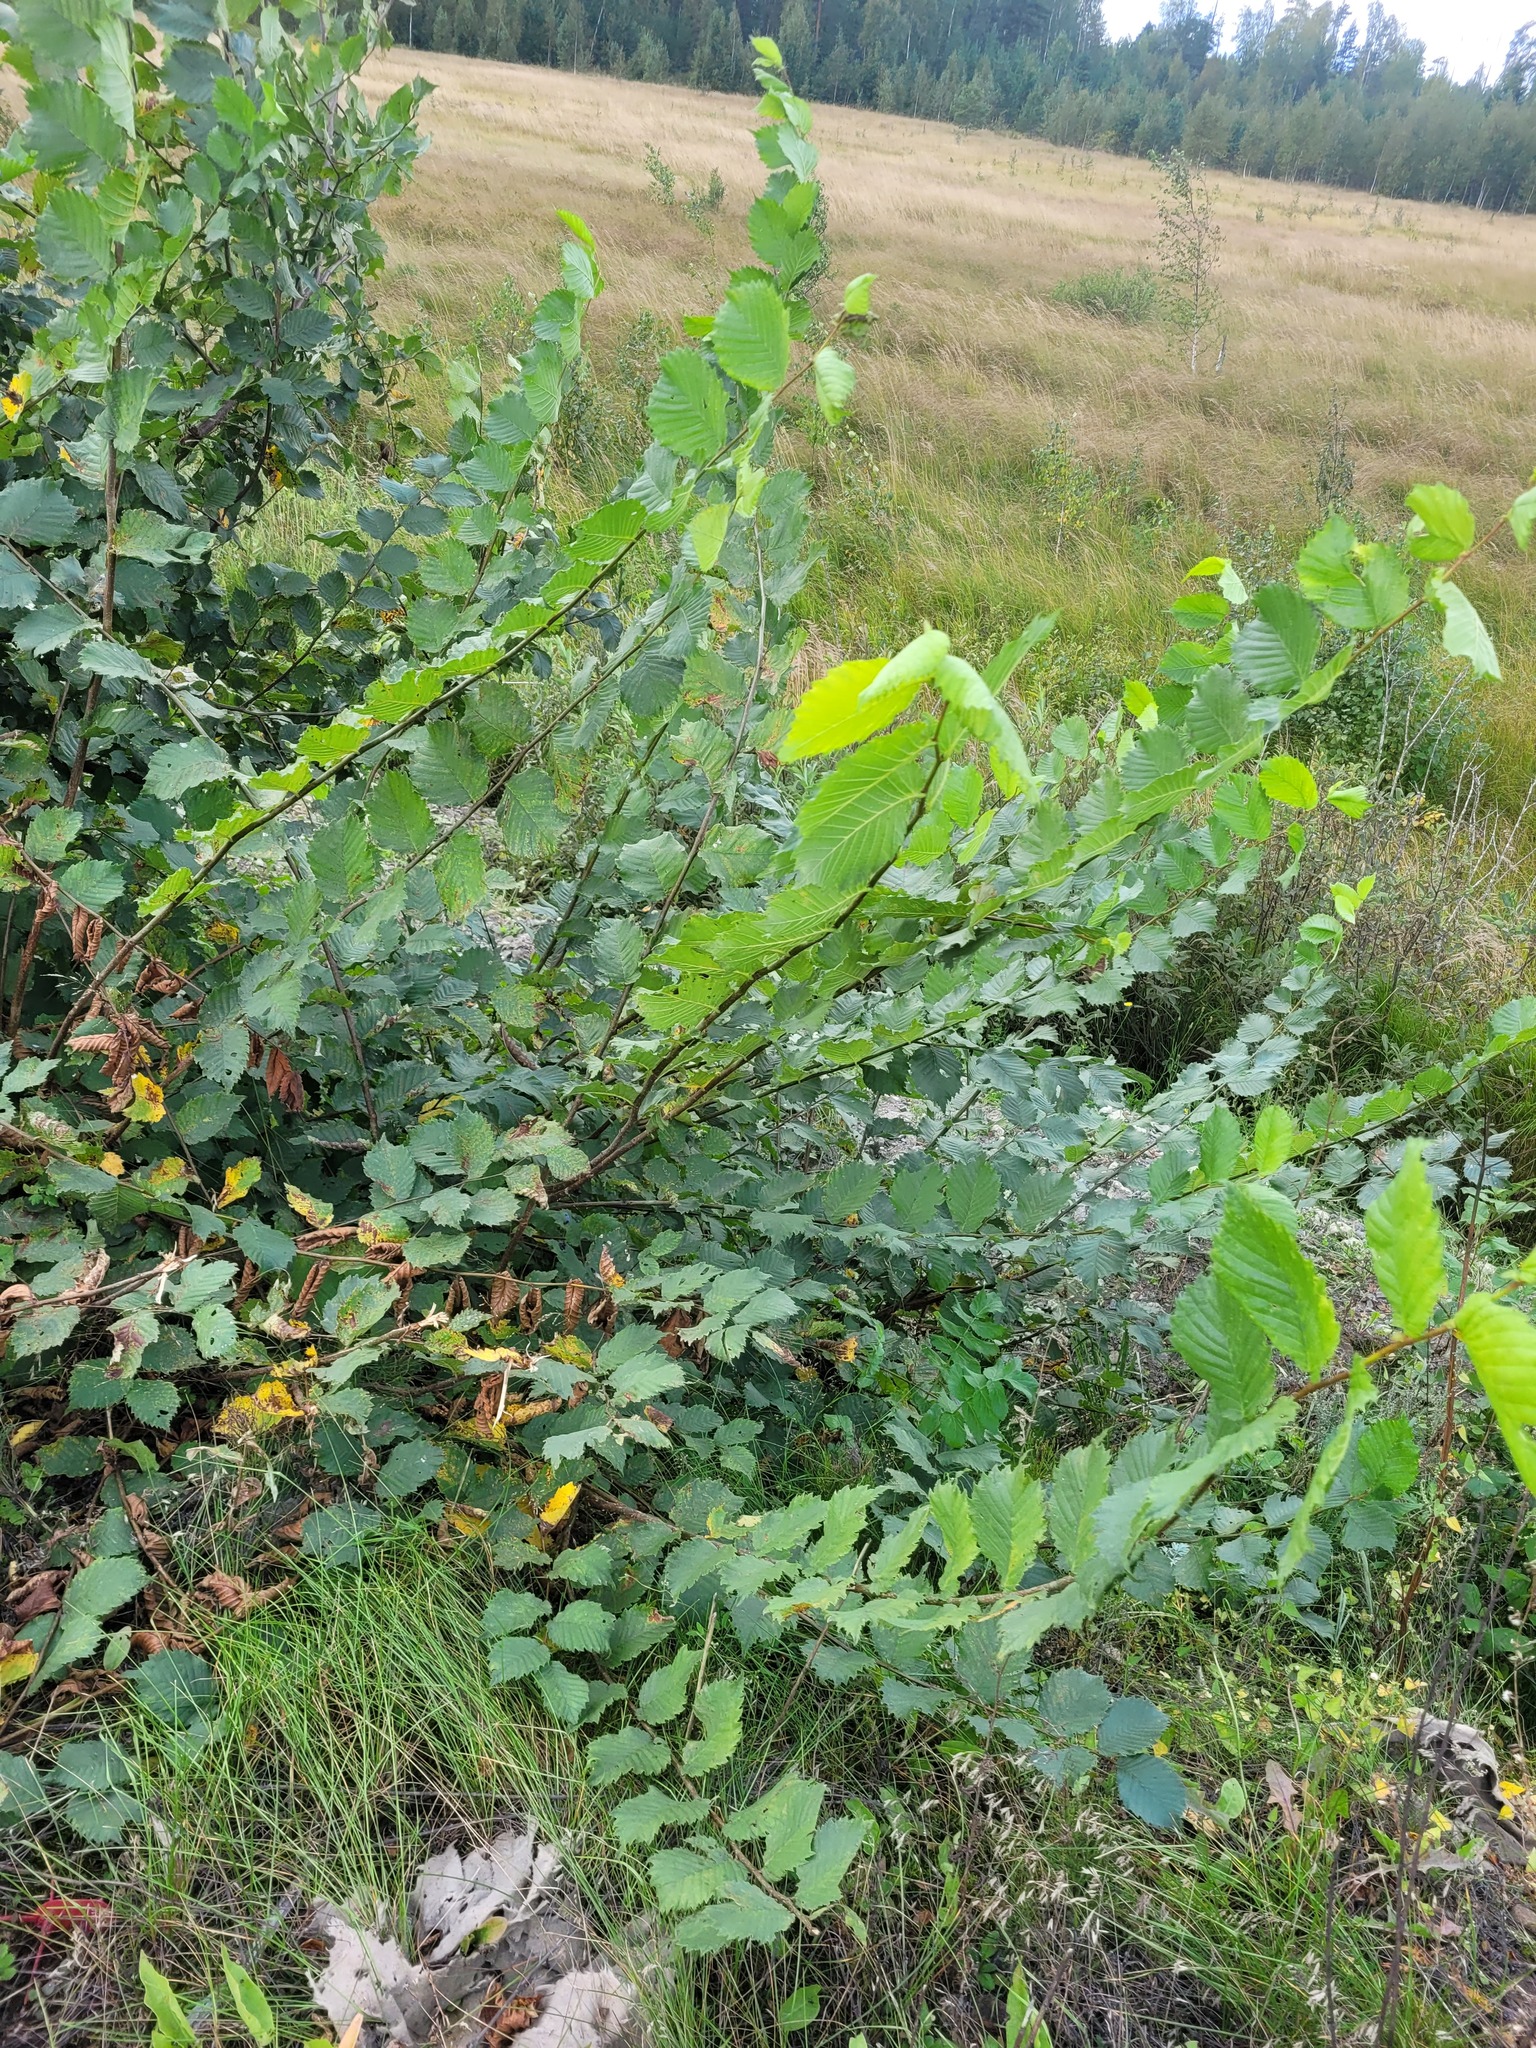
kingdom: Plantae
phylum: Tracheophyta
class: Magnoliopsida
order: Rosales
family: Ulmaceae
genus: Ulmus
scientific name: Ulmus laevis
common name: European white-elm
